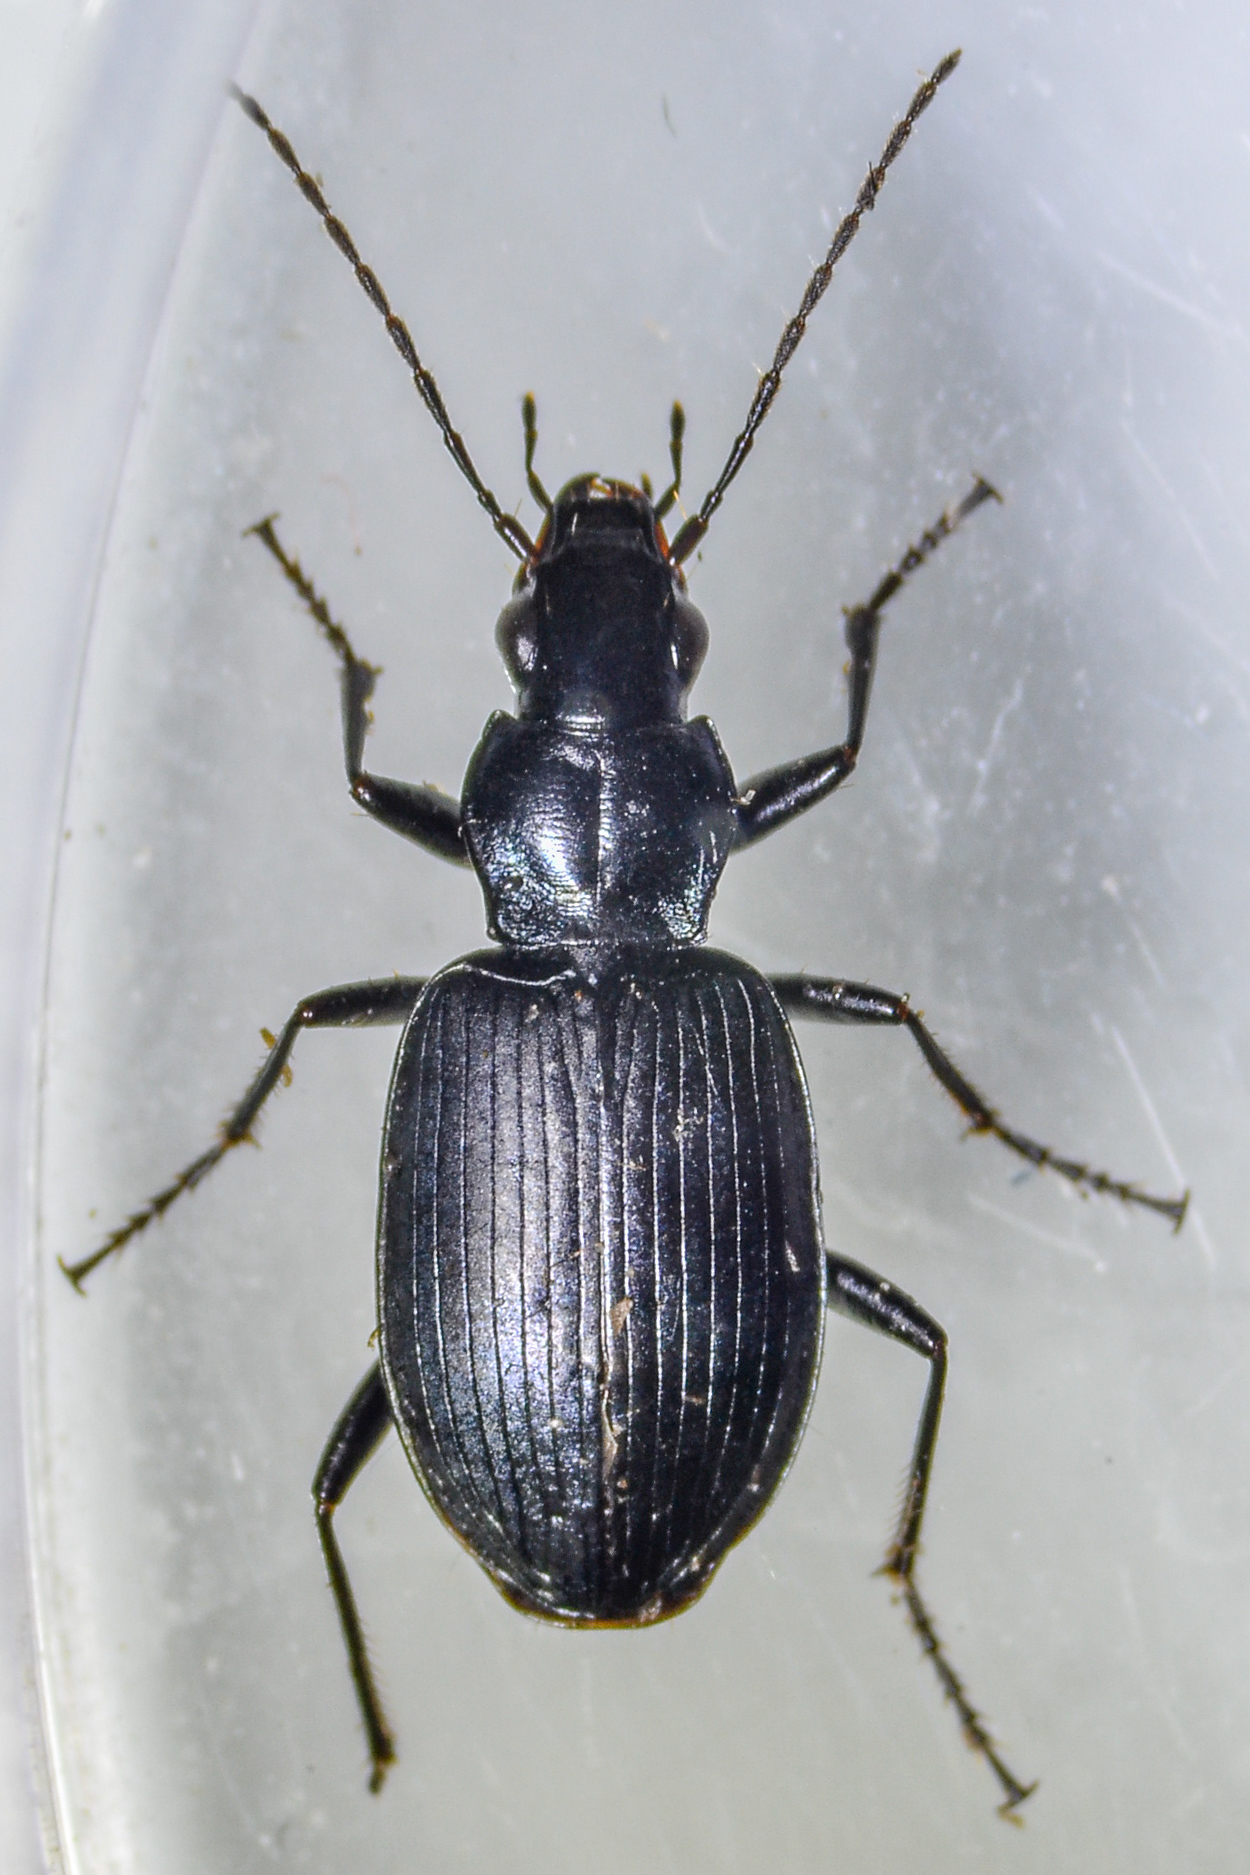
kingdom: Animalia
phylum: Arthropoda
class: Insecta
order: Coleoptera
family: Carabidae
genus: Anchomenus
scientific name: Anchomenus funebris
